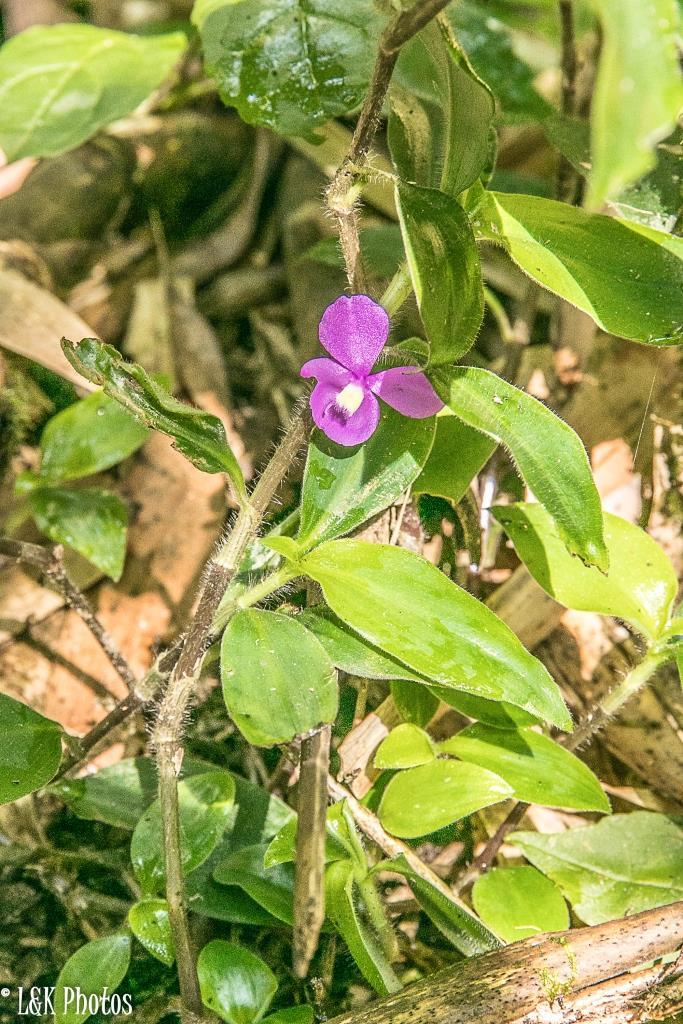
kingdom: Plantae
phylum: Tracheophyta
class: Liliopsida
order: Commelinales
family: Commelinaceae
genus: Coleotrype
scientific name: Coleotrype baronii
